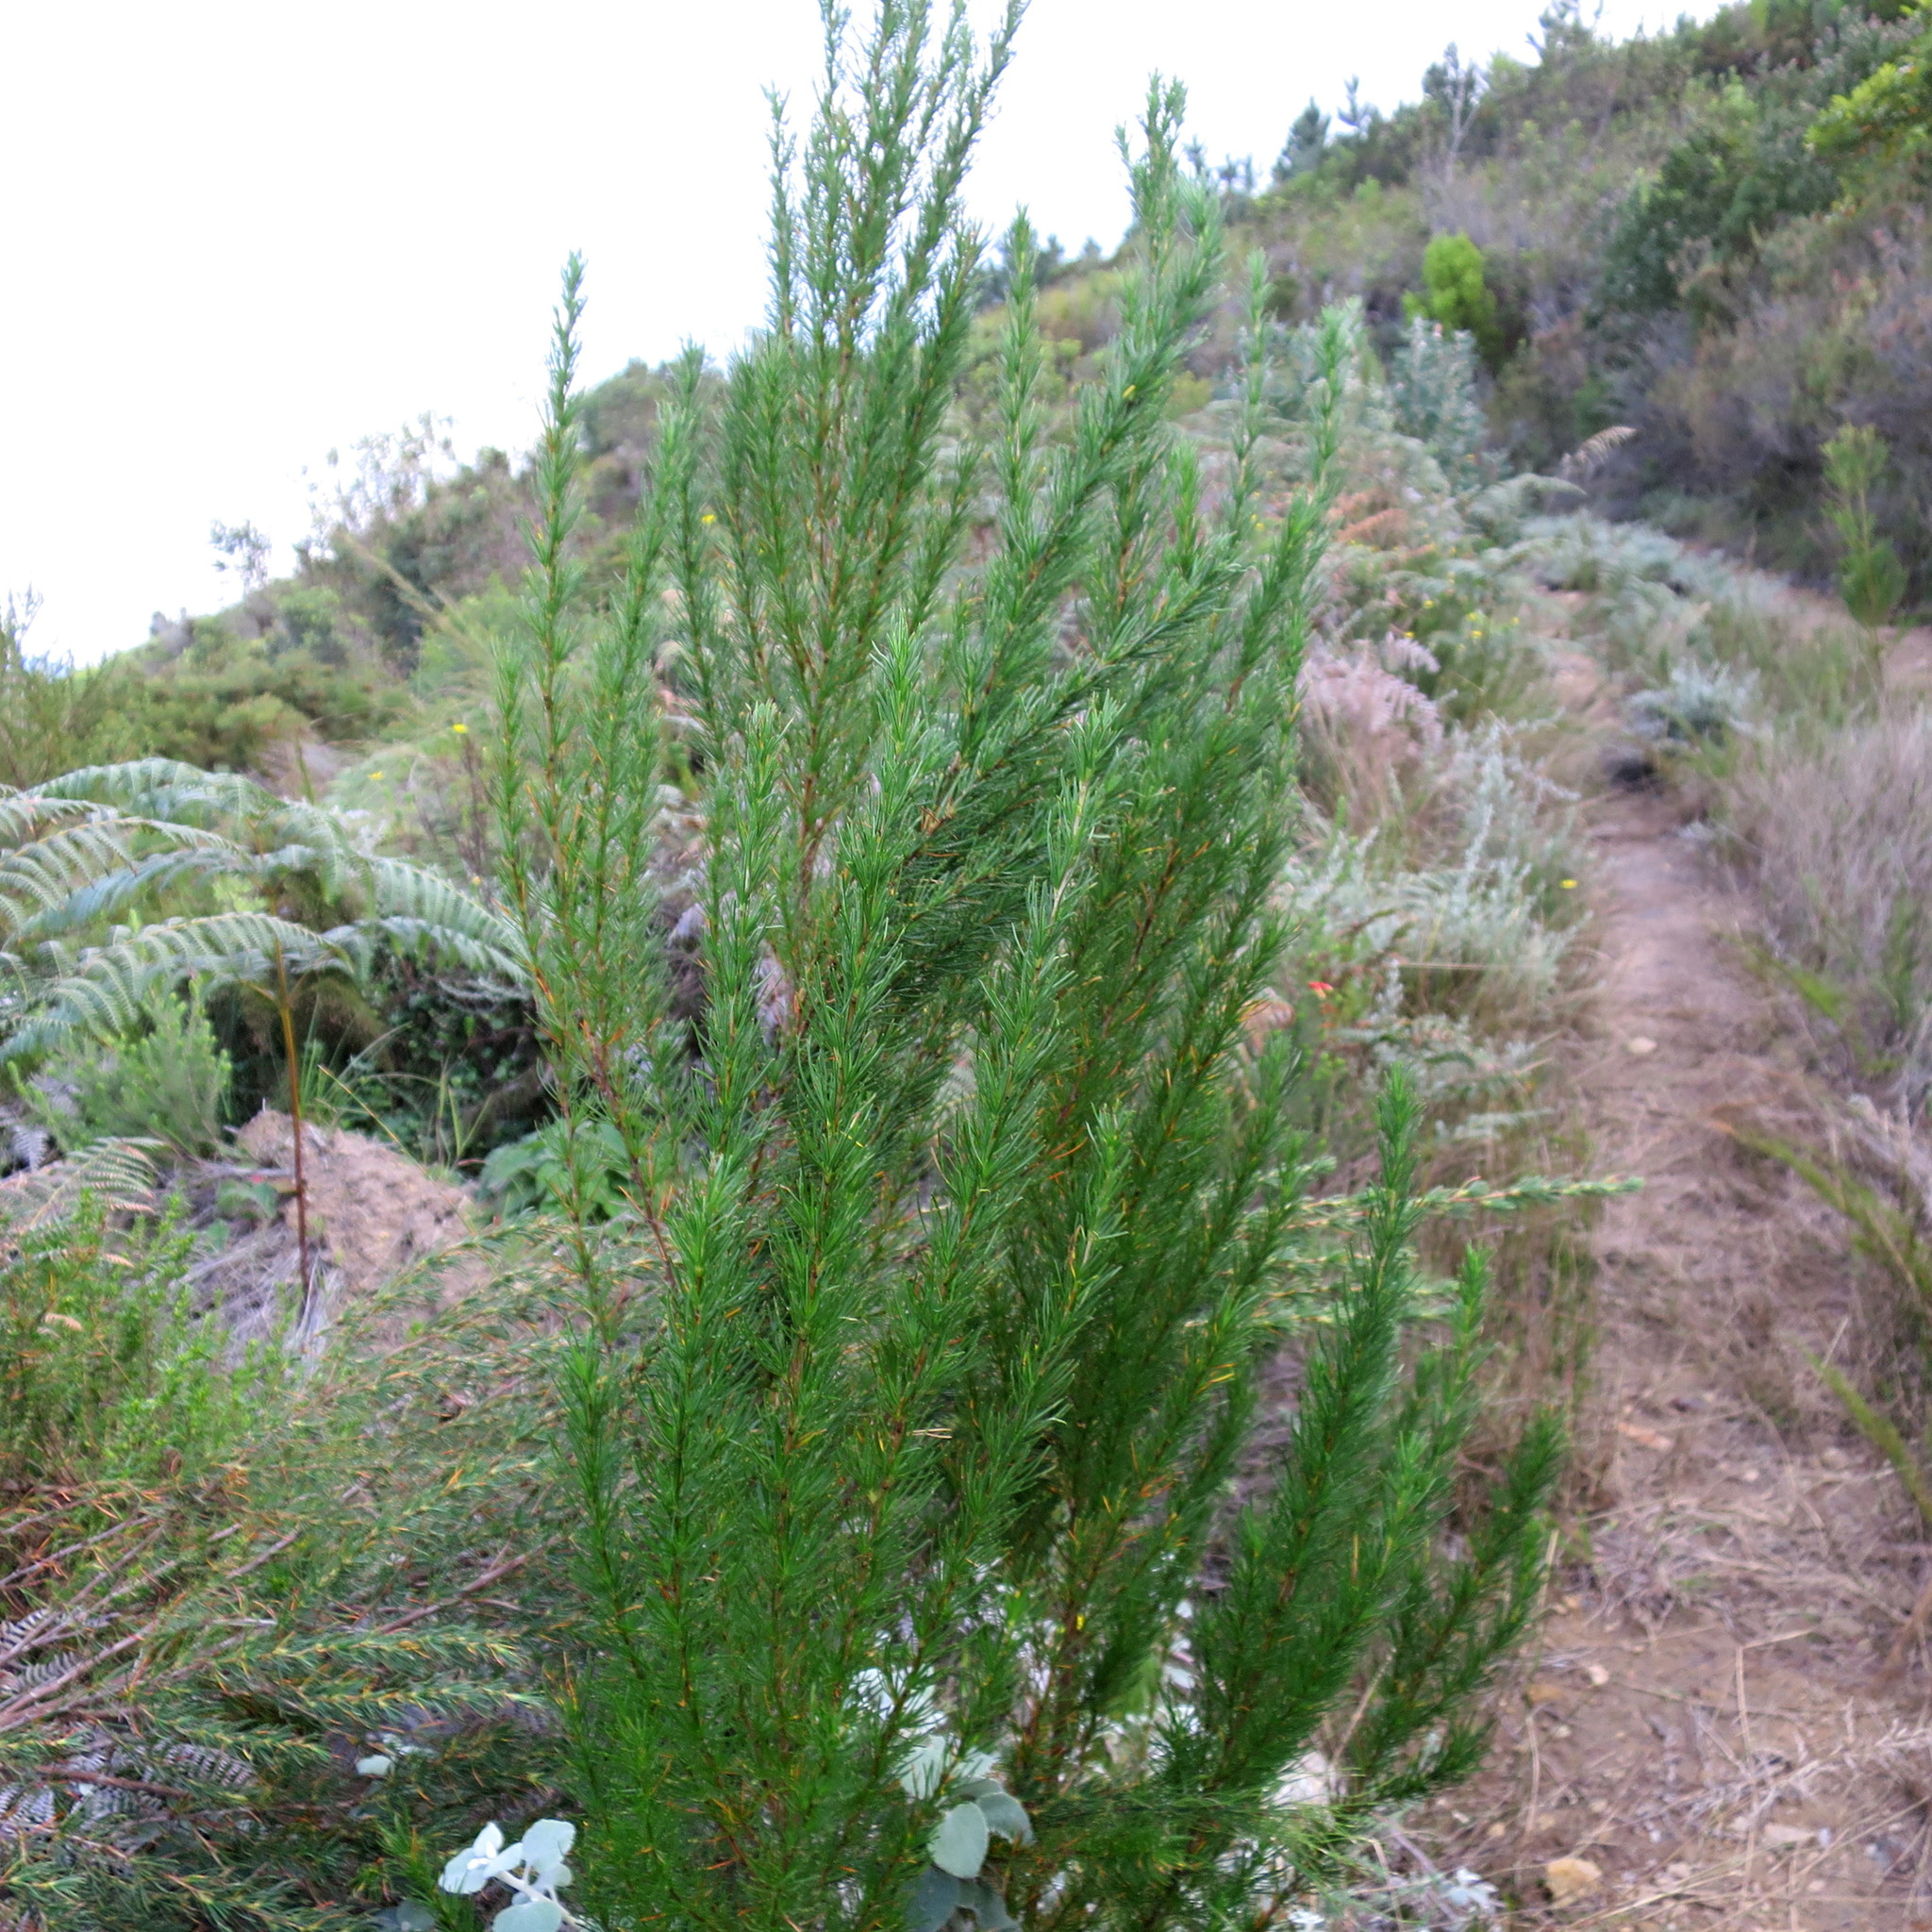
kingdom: Plantae
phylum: Tracheophyta
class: Magnoliopsida
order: Rosales
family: Rosaceae
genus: Cliffortia
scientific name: Cliffortia burchellii
